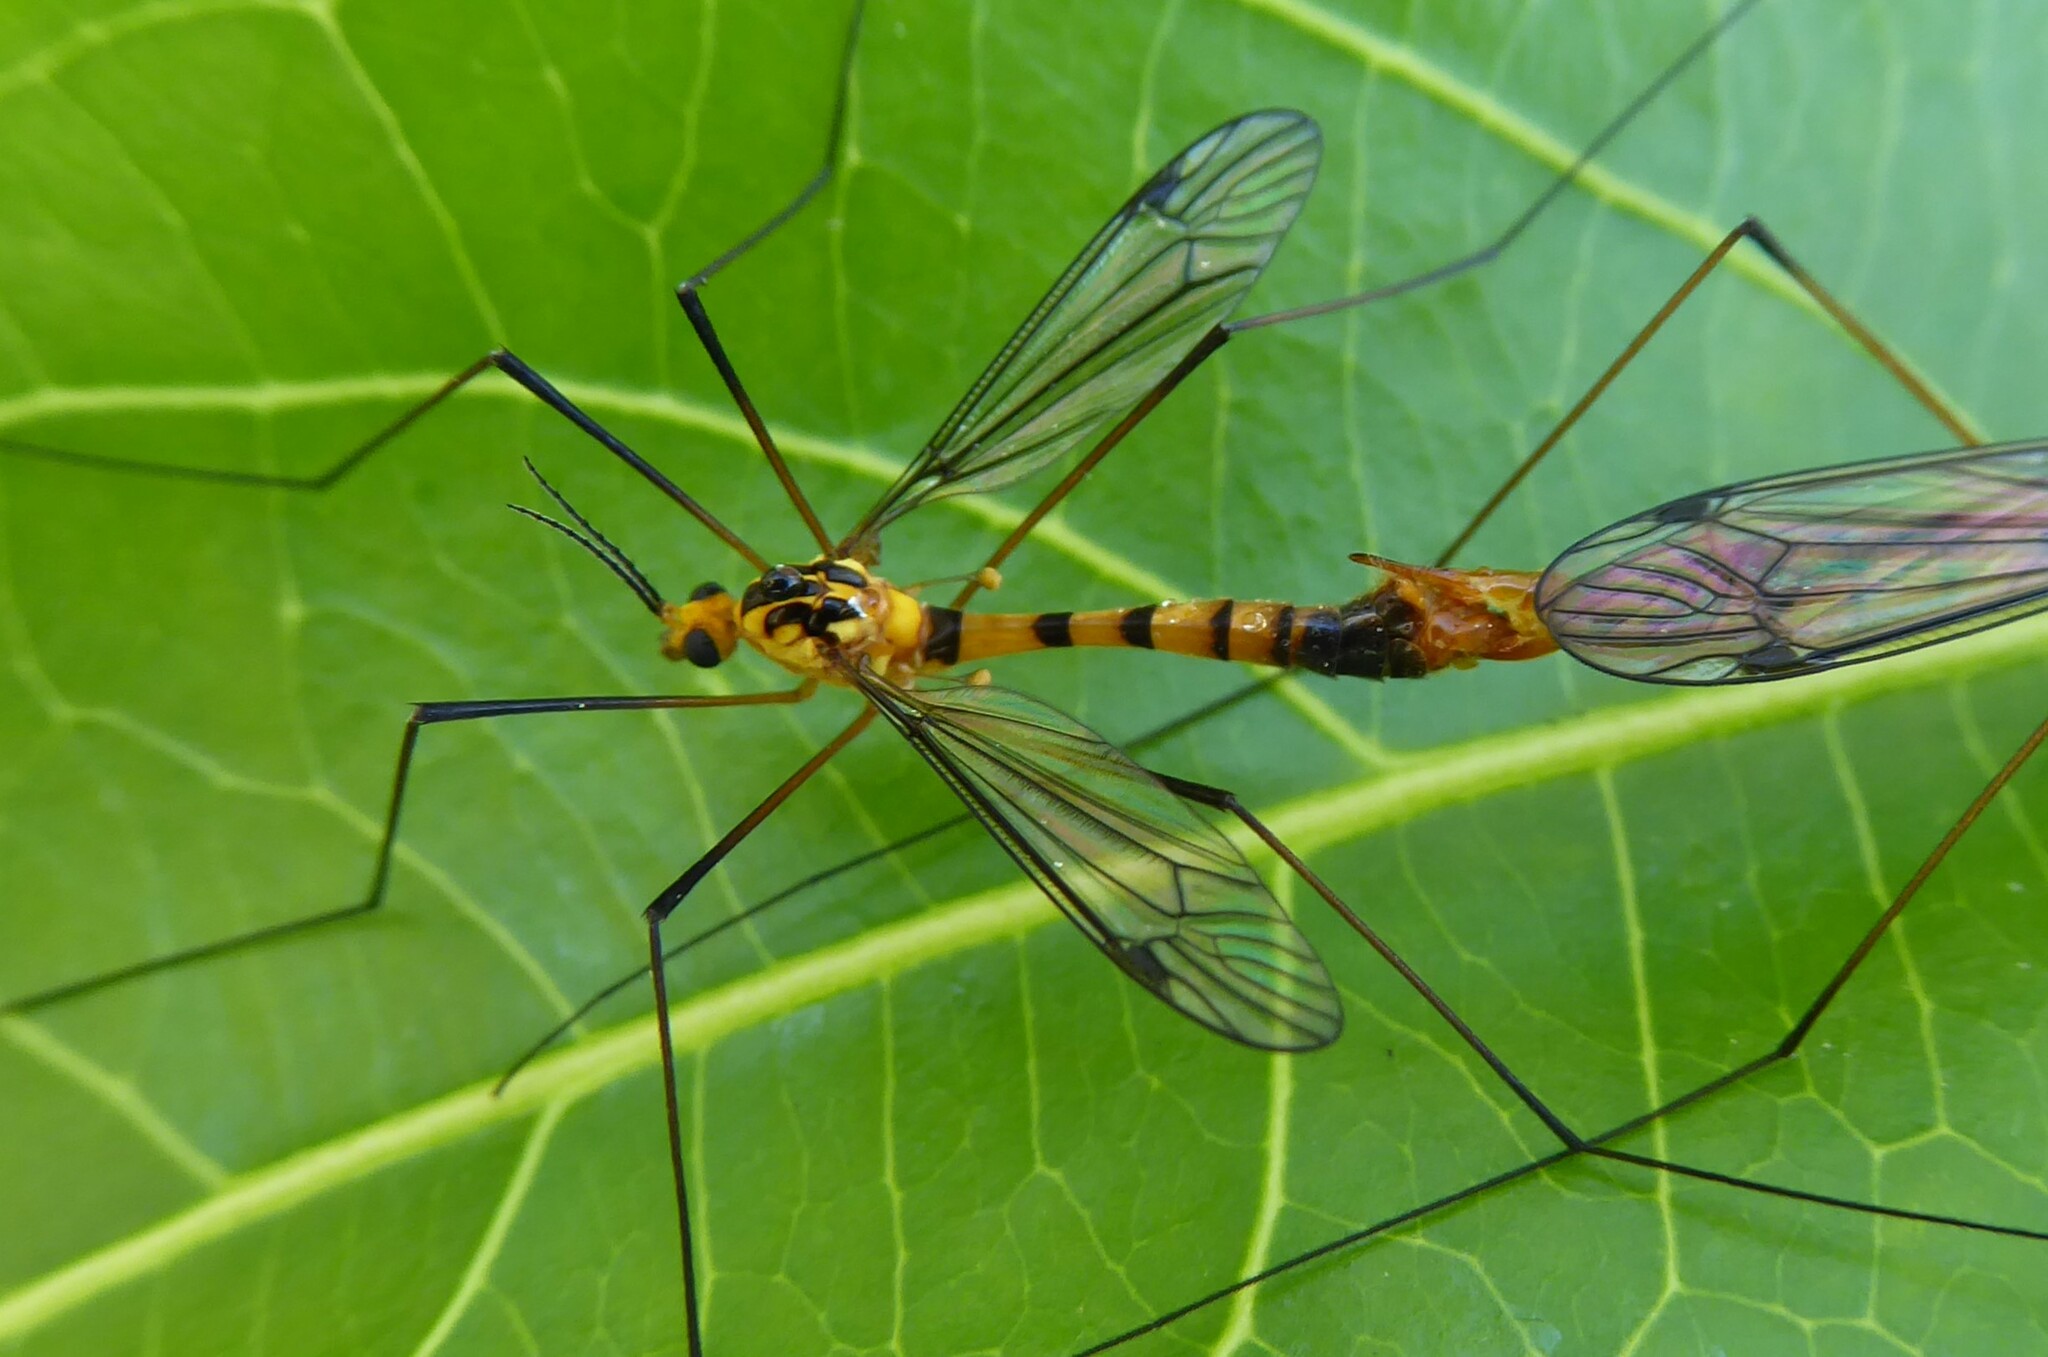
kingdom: Animalia
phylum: Arthropoda
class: Insecta
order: Diptera
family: Tipulidae
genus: Nephrotoma
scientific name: Nephrotoma australasiae
